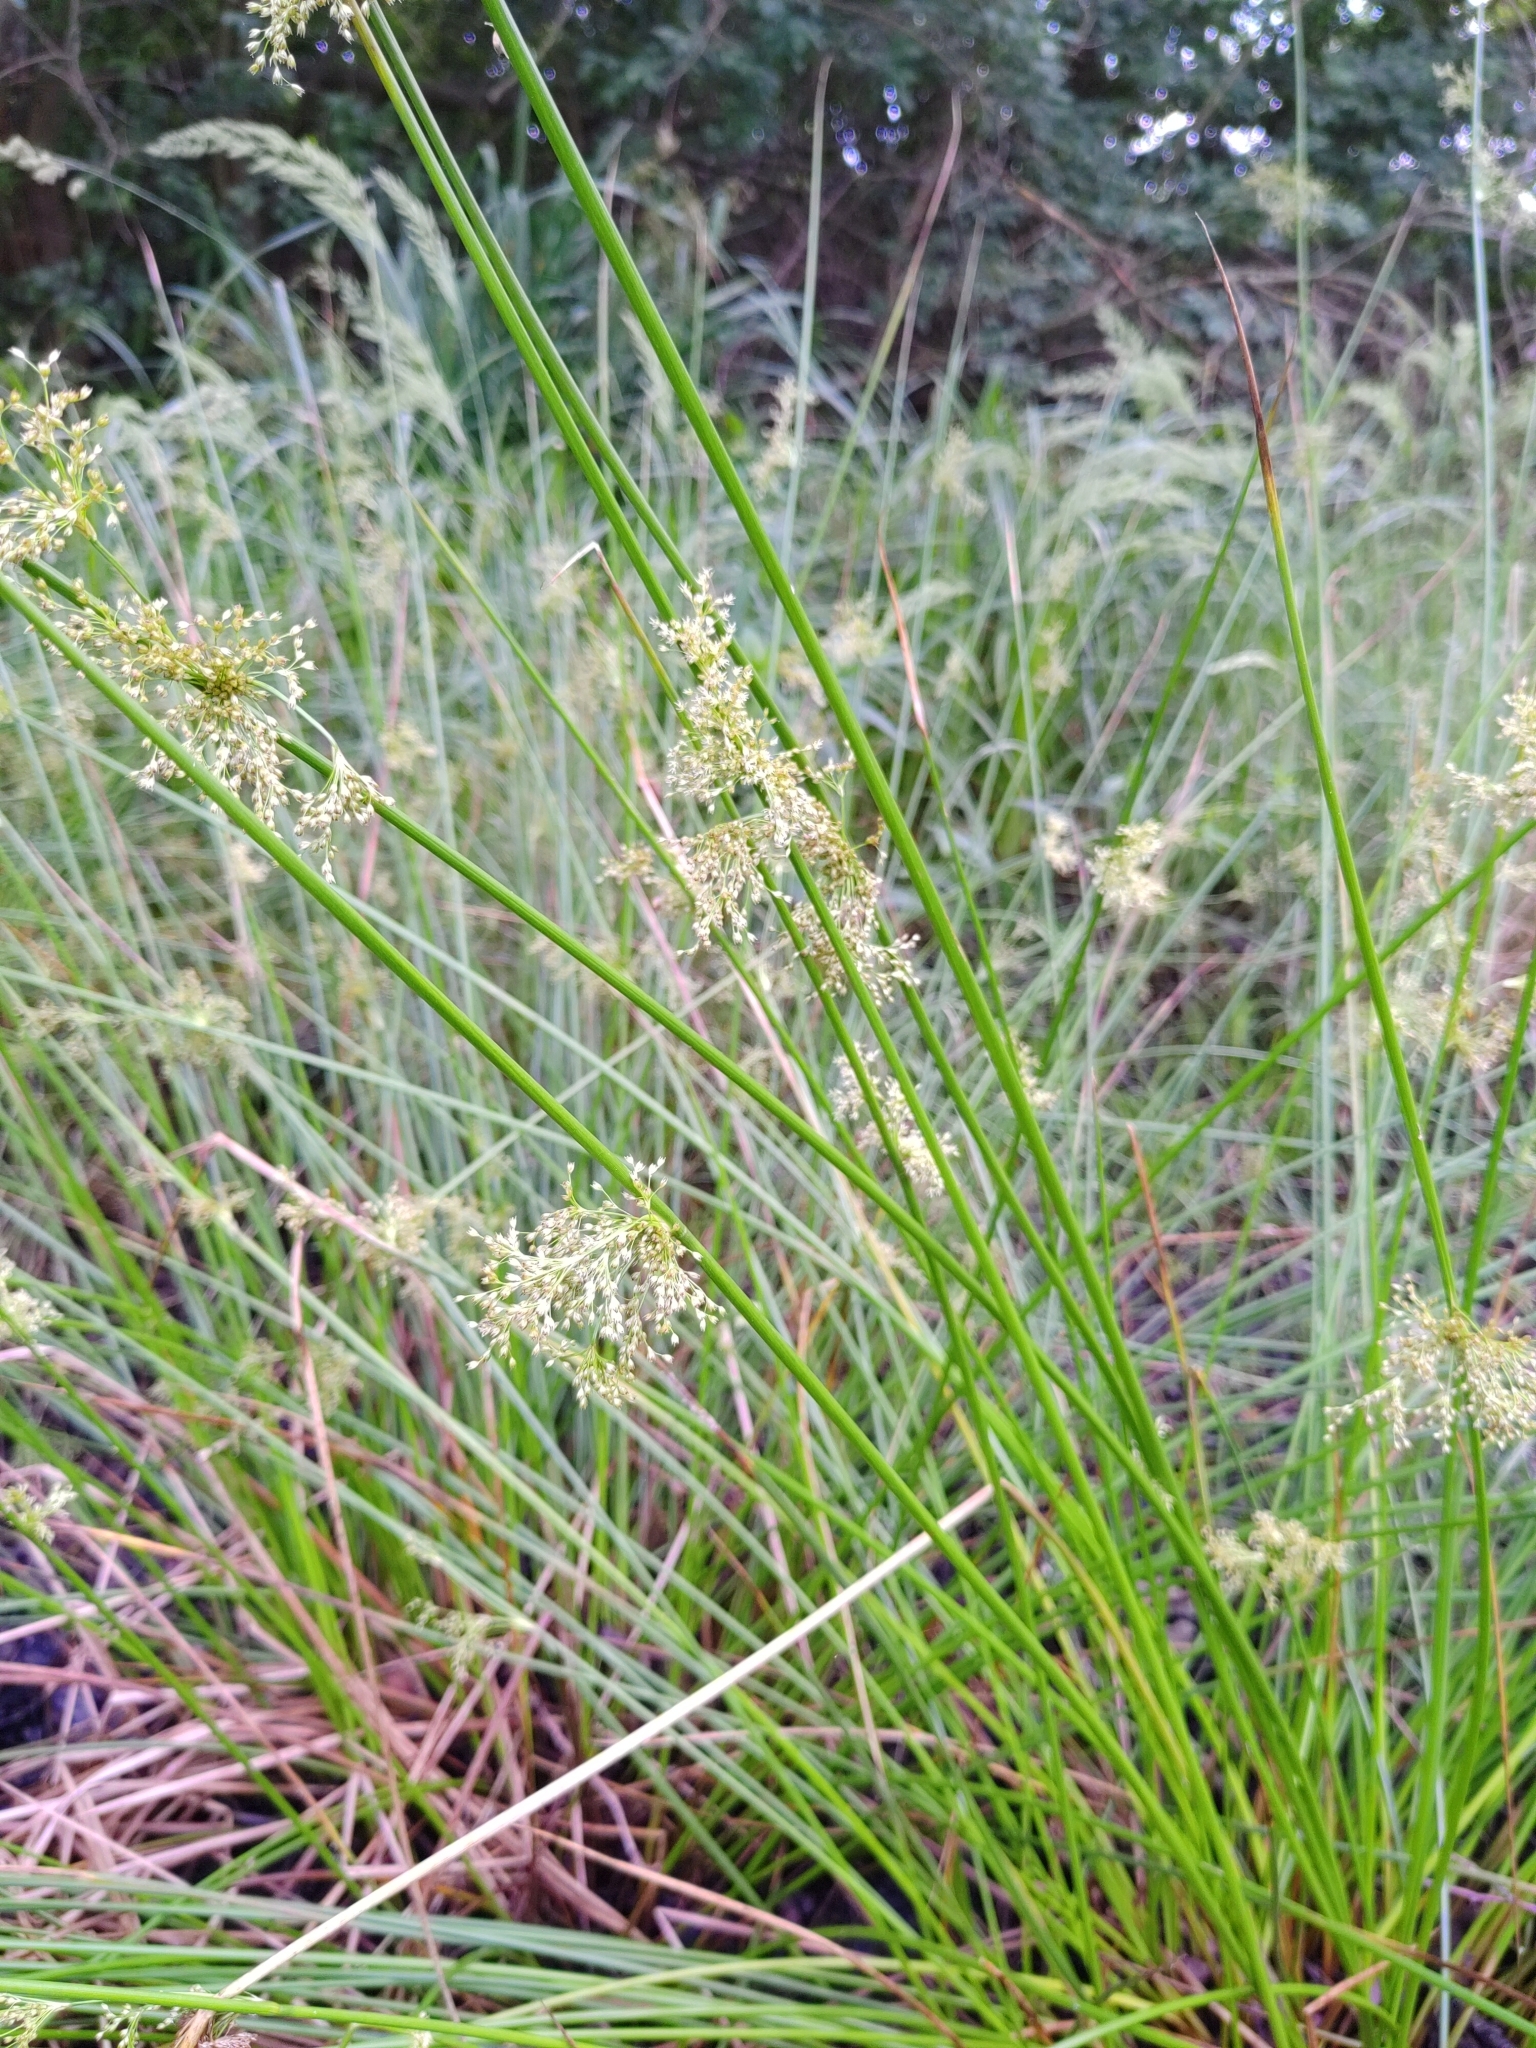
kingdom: Plantae
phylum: Tracheophyta
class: Liliopsida
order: Poales
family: Juncaceae
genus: Juncus
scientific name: Juncus effusus
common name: Soft rush
